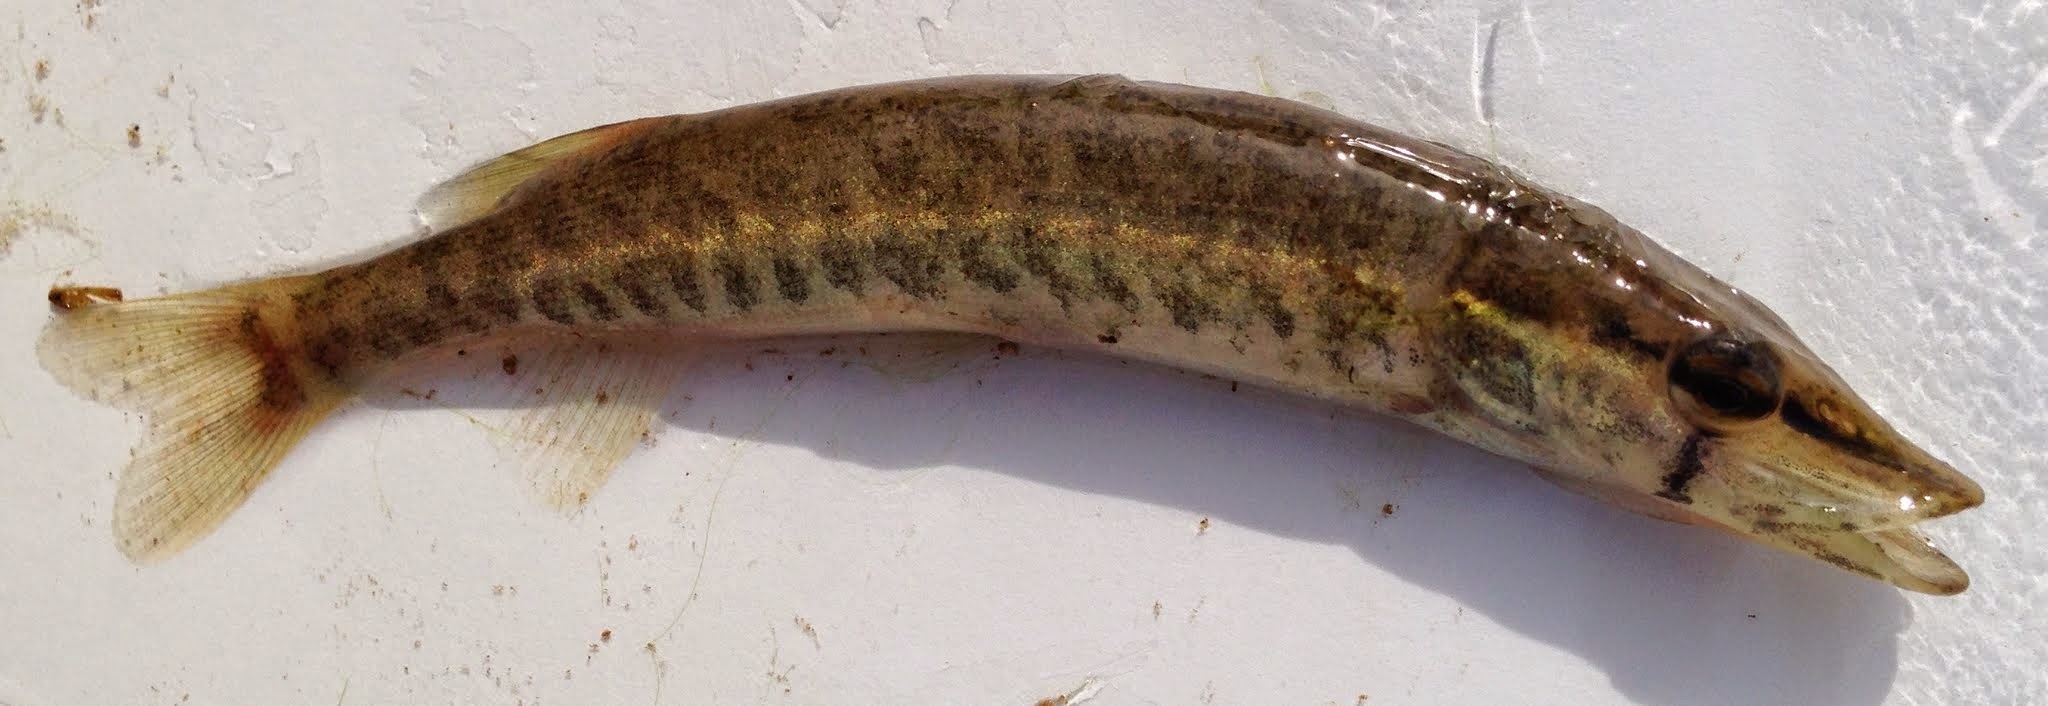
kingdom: Animalia
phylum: Chordata
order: Esociformes
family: Esocidae
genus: Esox
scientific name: Esox americanus
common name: Redfin pickerel
